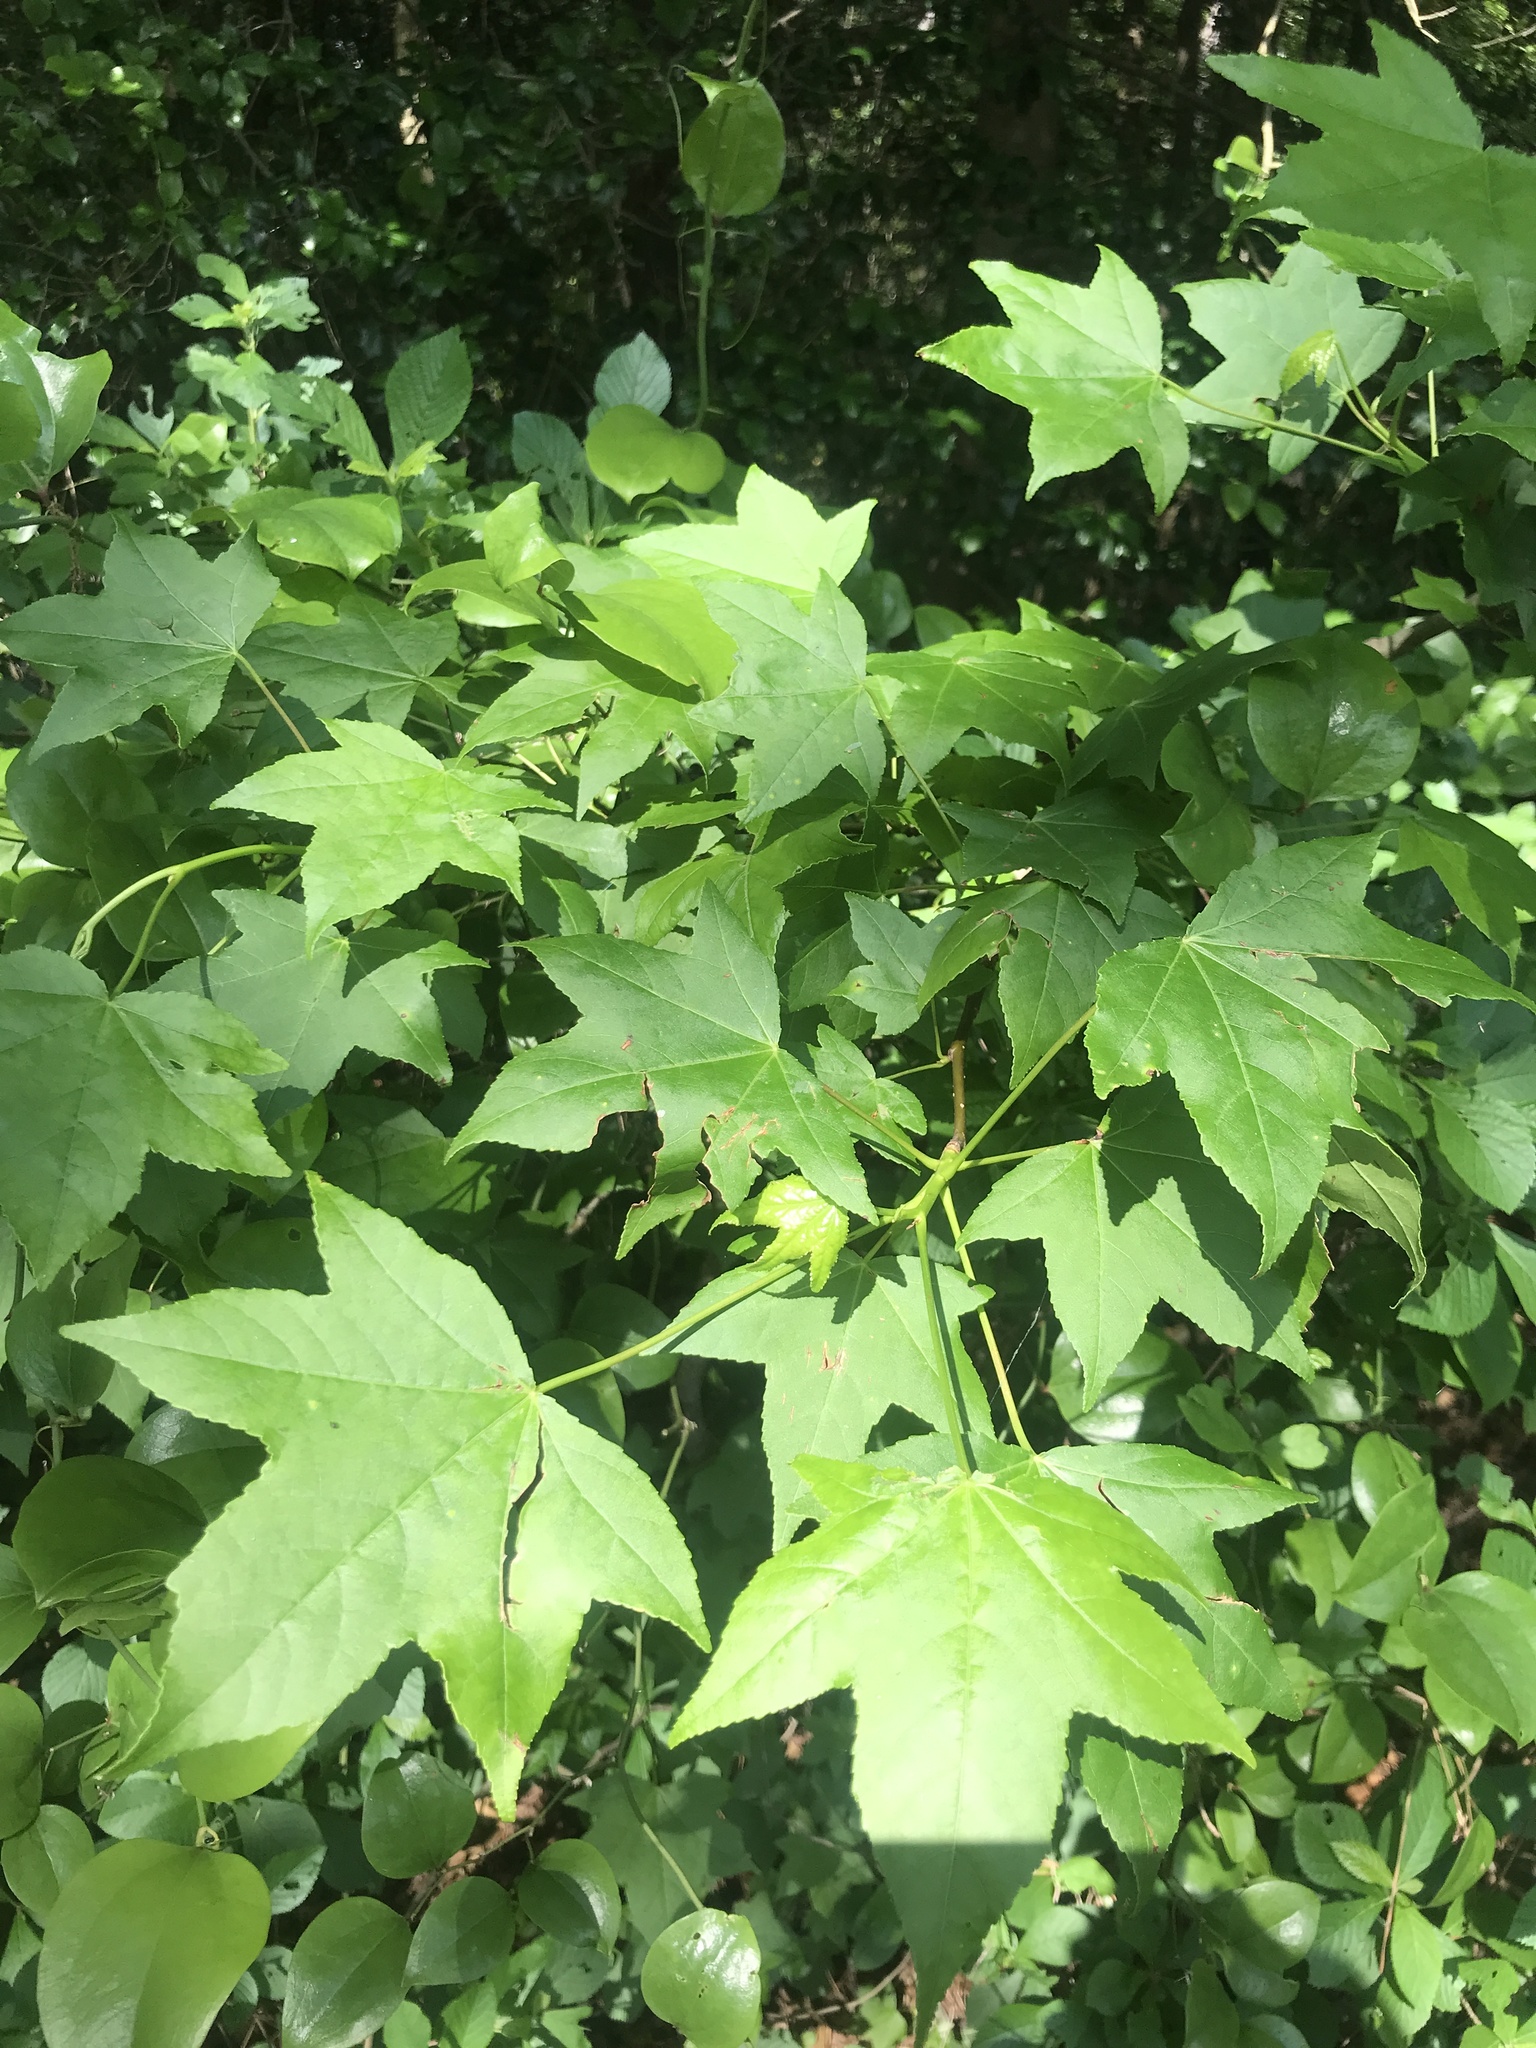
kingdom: Plantae
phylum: Tracheophyta
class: Magnoliopsida
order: Saxifragales
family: Altingiaceae
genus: Liquidambar
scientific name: Liquidambar styraciflua
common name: Sweet gum
